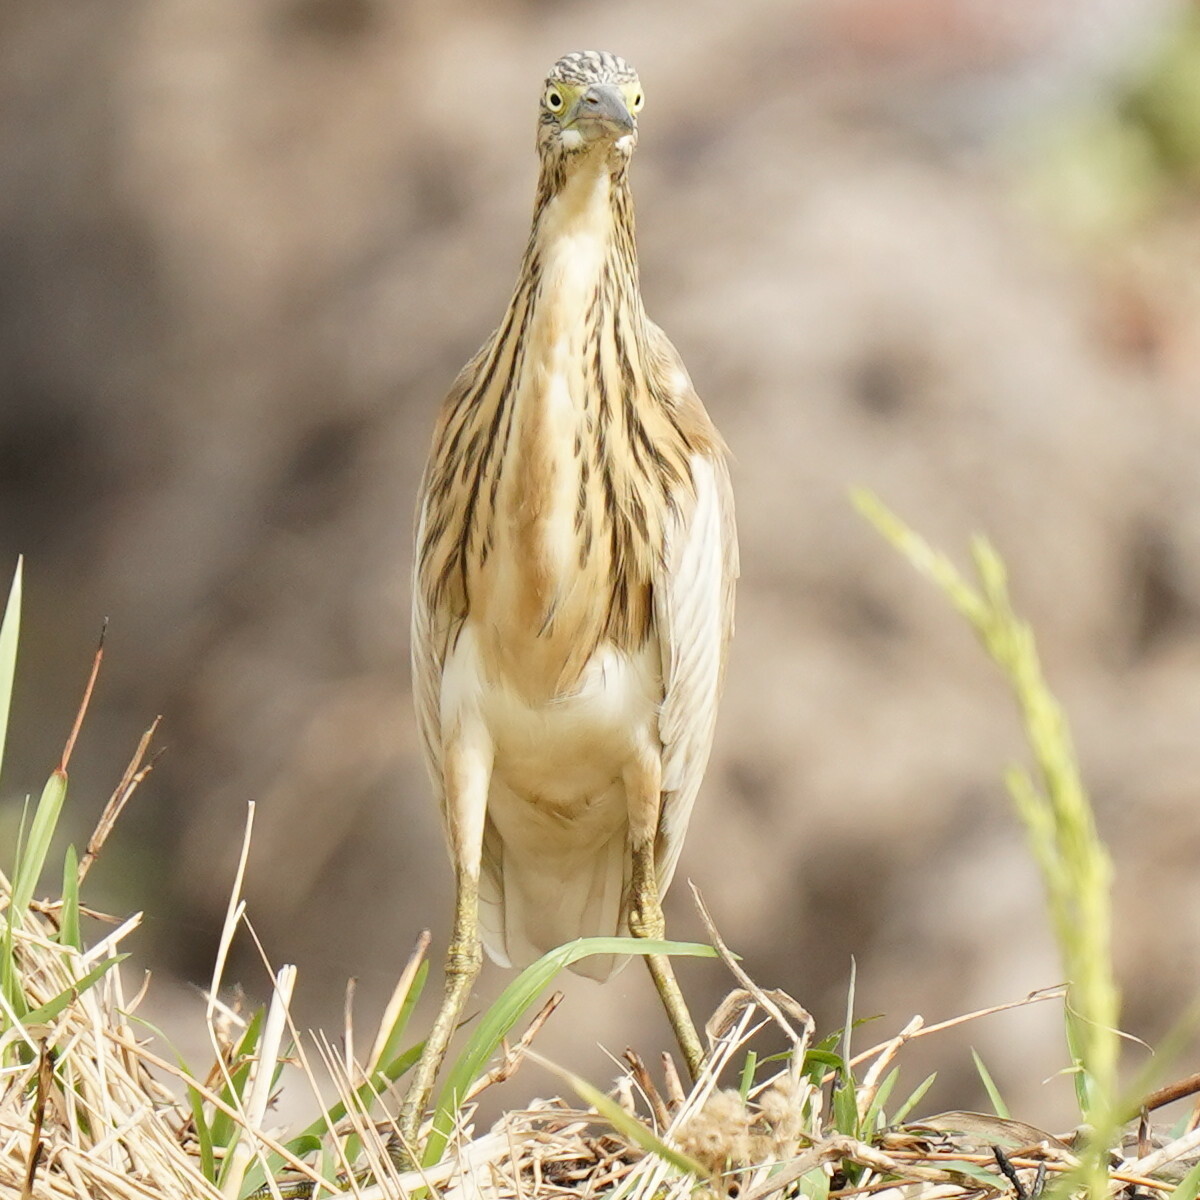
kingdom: Animalia
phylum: Chordata
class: Aves
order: Pelecaniformes
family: Ardeidae
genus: Ardeola
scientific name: Ardeola ralloides
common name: Squacco heron
